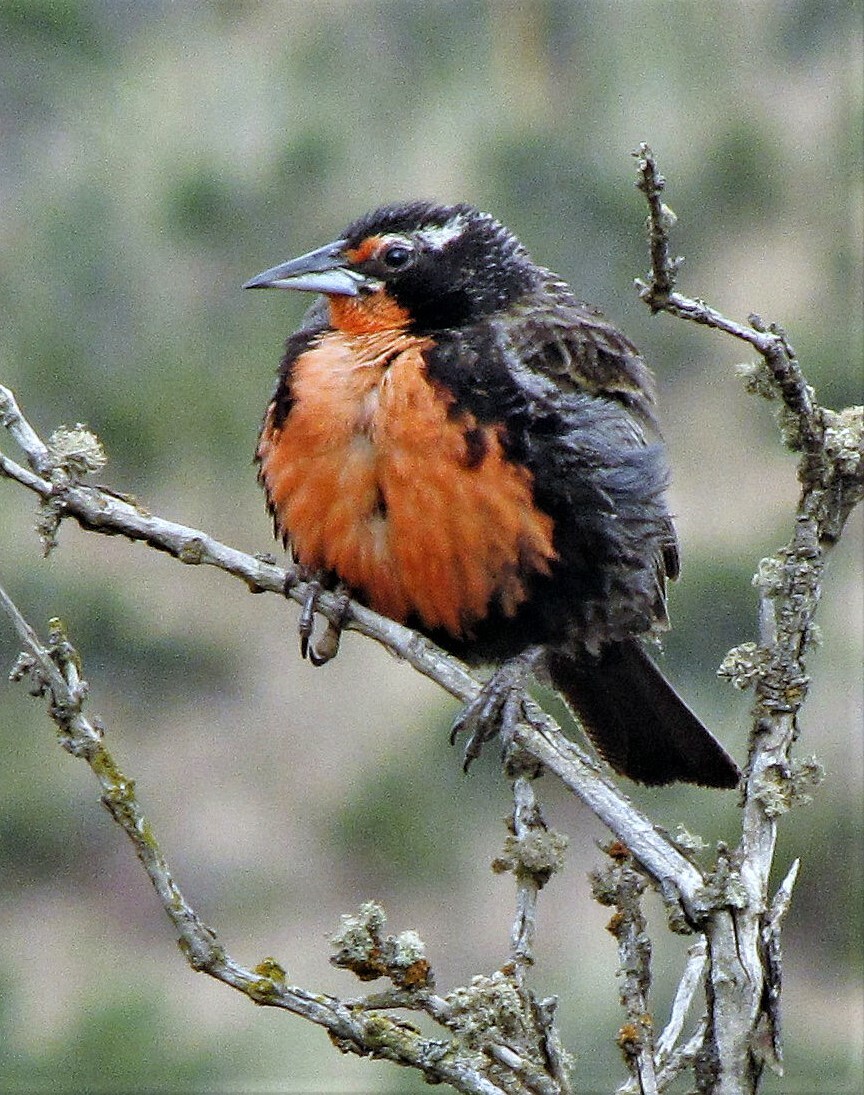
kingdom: Animalia
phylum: Chordata
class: Aves
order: Passeriformes
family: Icteridae
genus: Sturnella
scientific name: Sturnella loyca
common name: Long-tailed meadowlark
